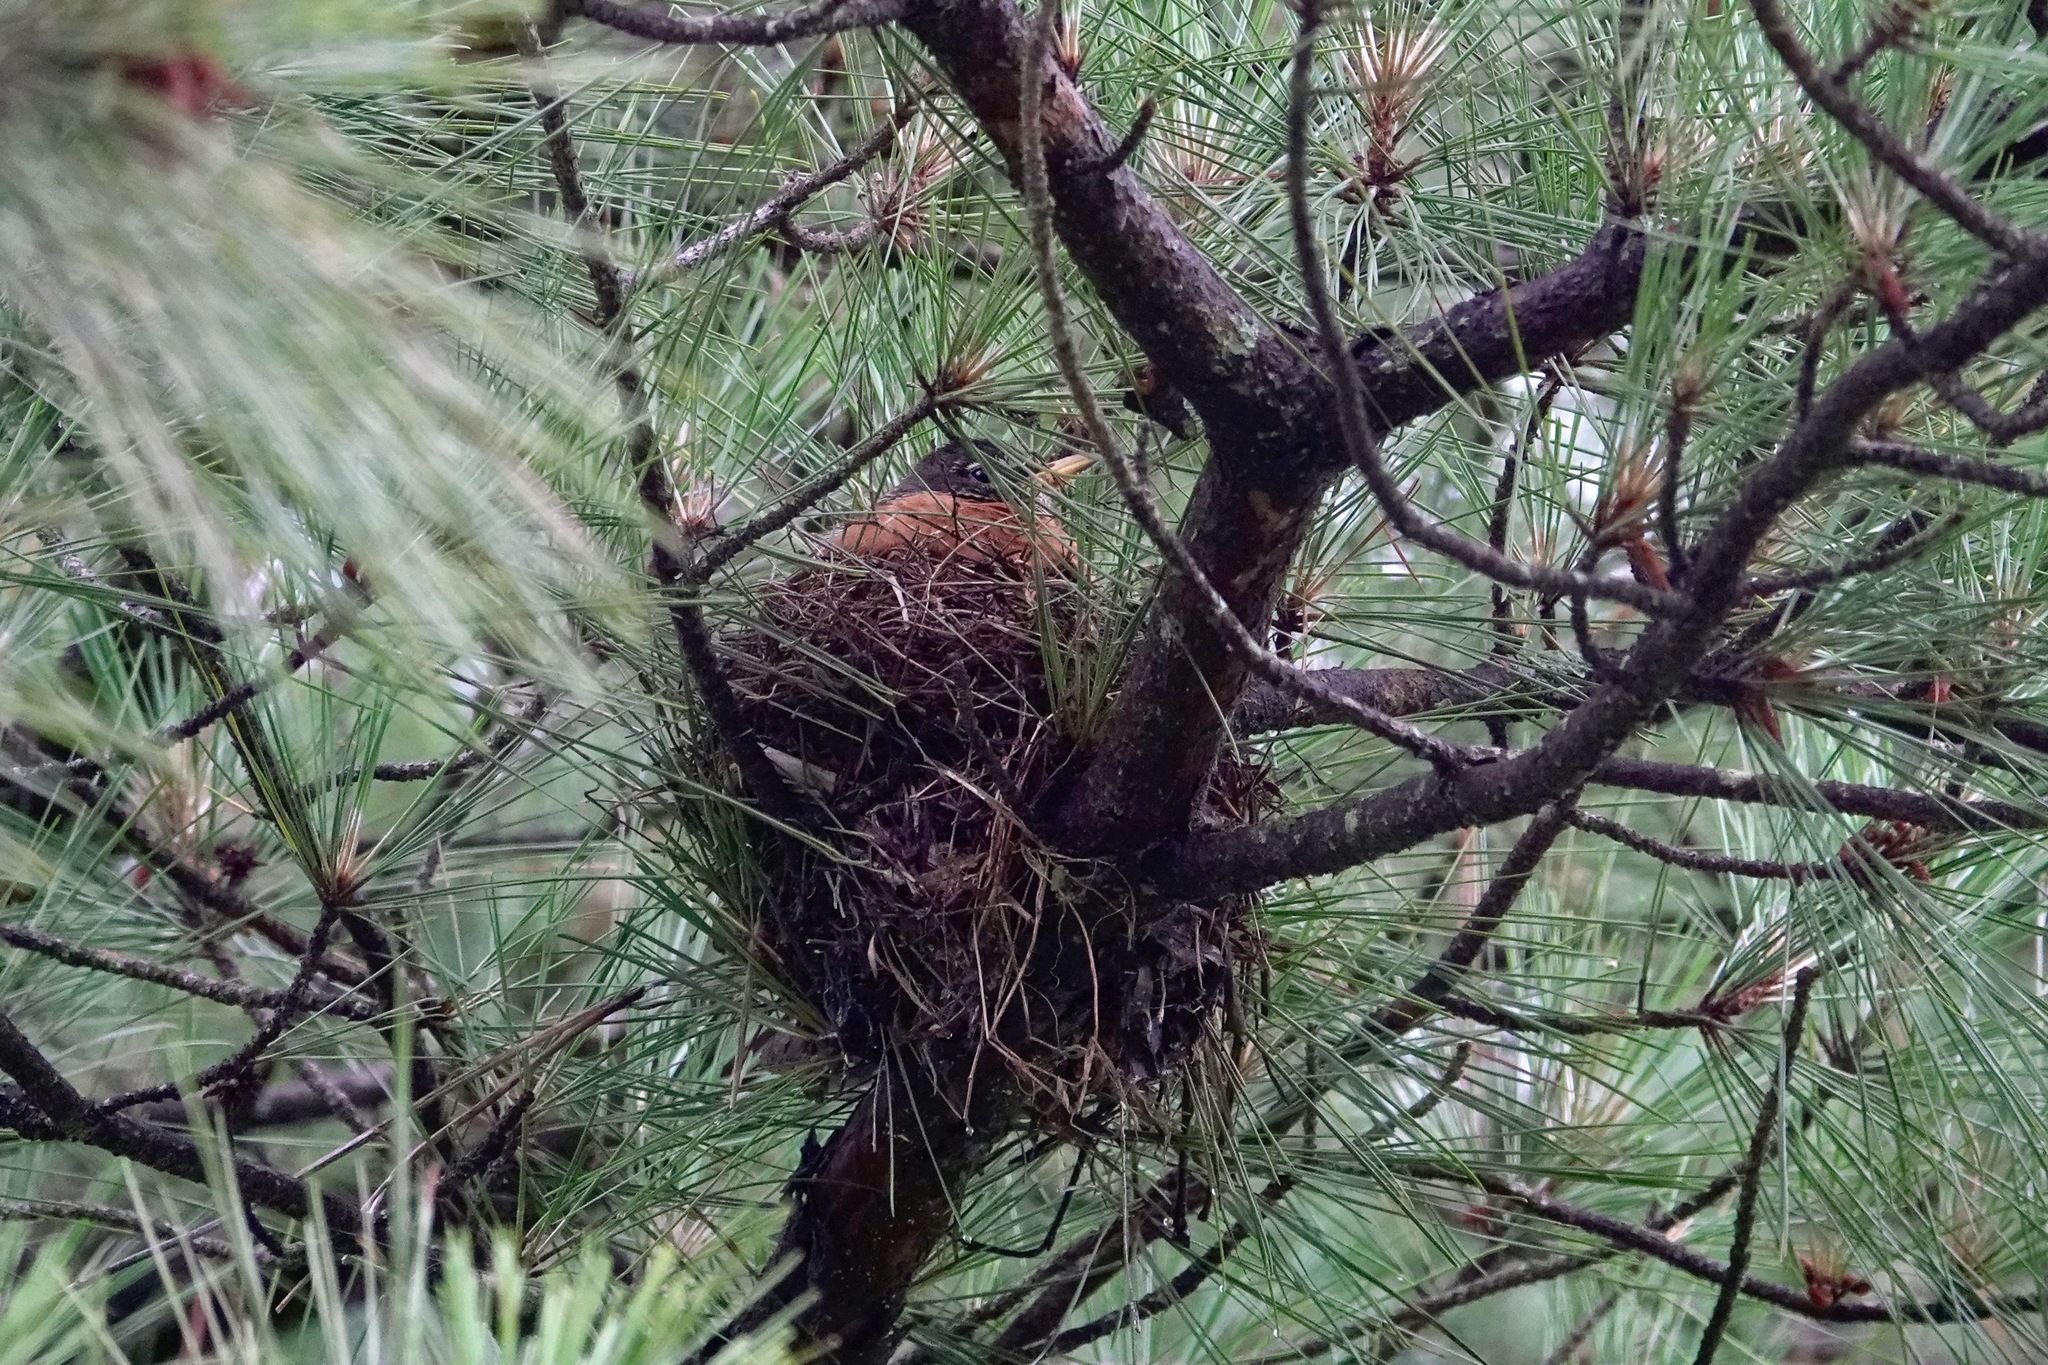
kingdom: Animalia
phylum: Chordata
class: Aves
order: Passeriformes
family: Turdidae
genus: Turdus
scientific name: Turdus migratorius
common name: American robin
